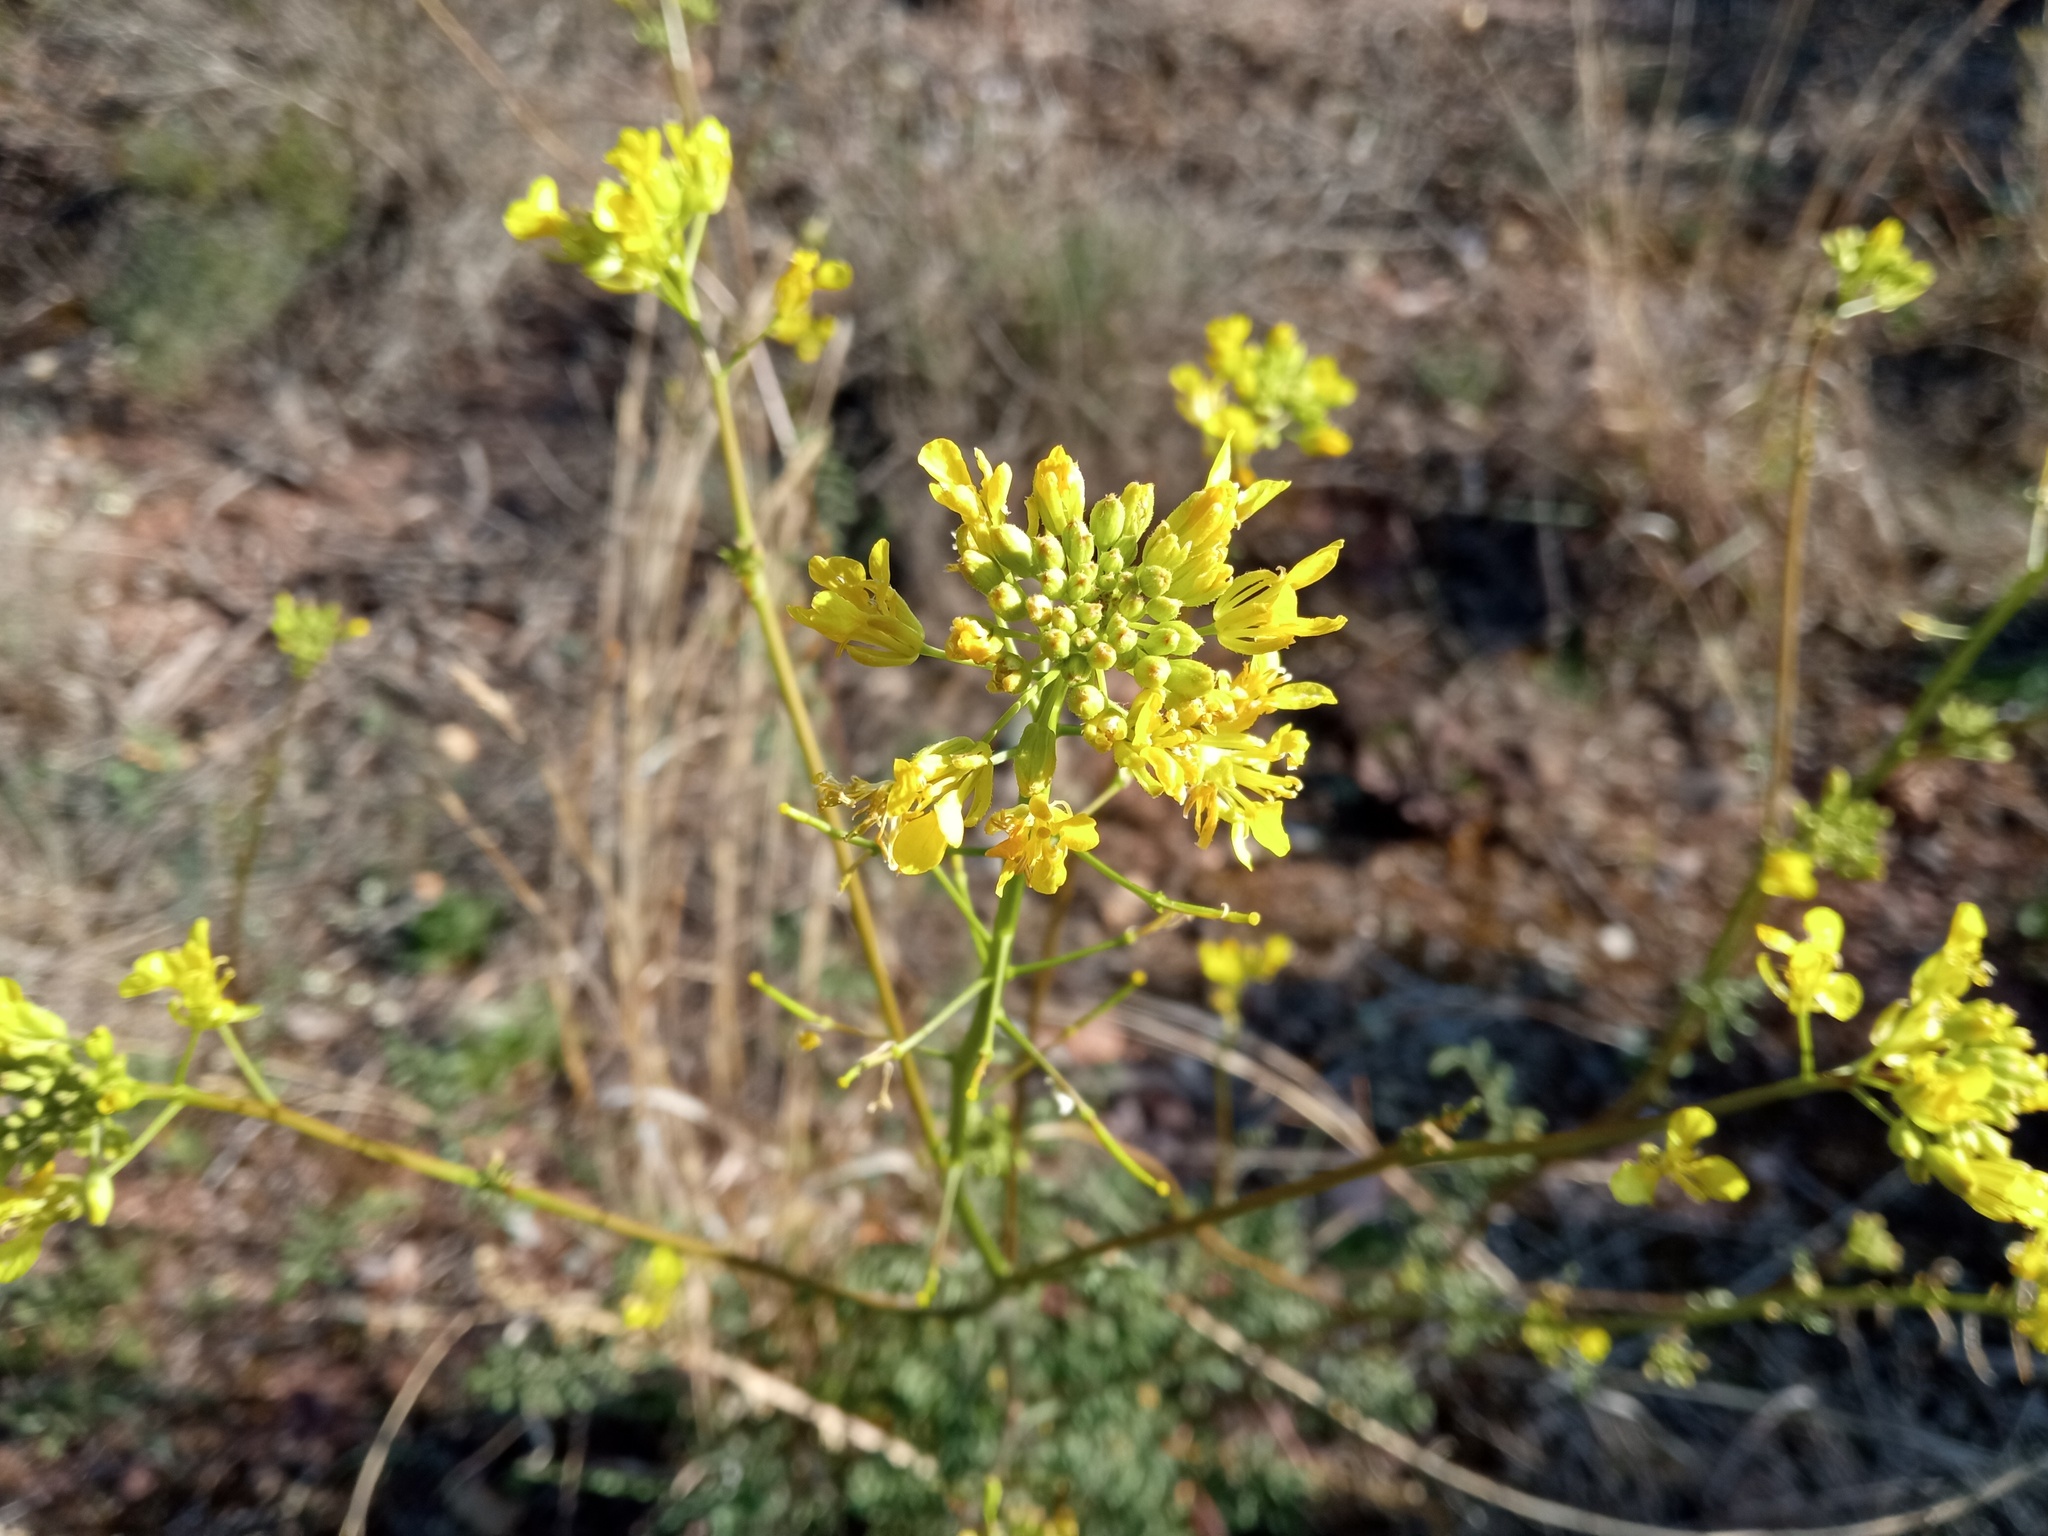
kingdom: Plantae
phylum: Tracheophyta
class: Magnoliopsida
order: Brassicales
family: Brassicaceae
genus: Erucastrum
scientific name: Erucastrum nasturtiifolium
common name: Watercress-leaf rocket
